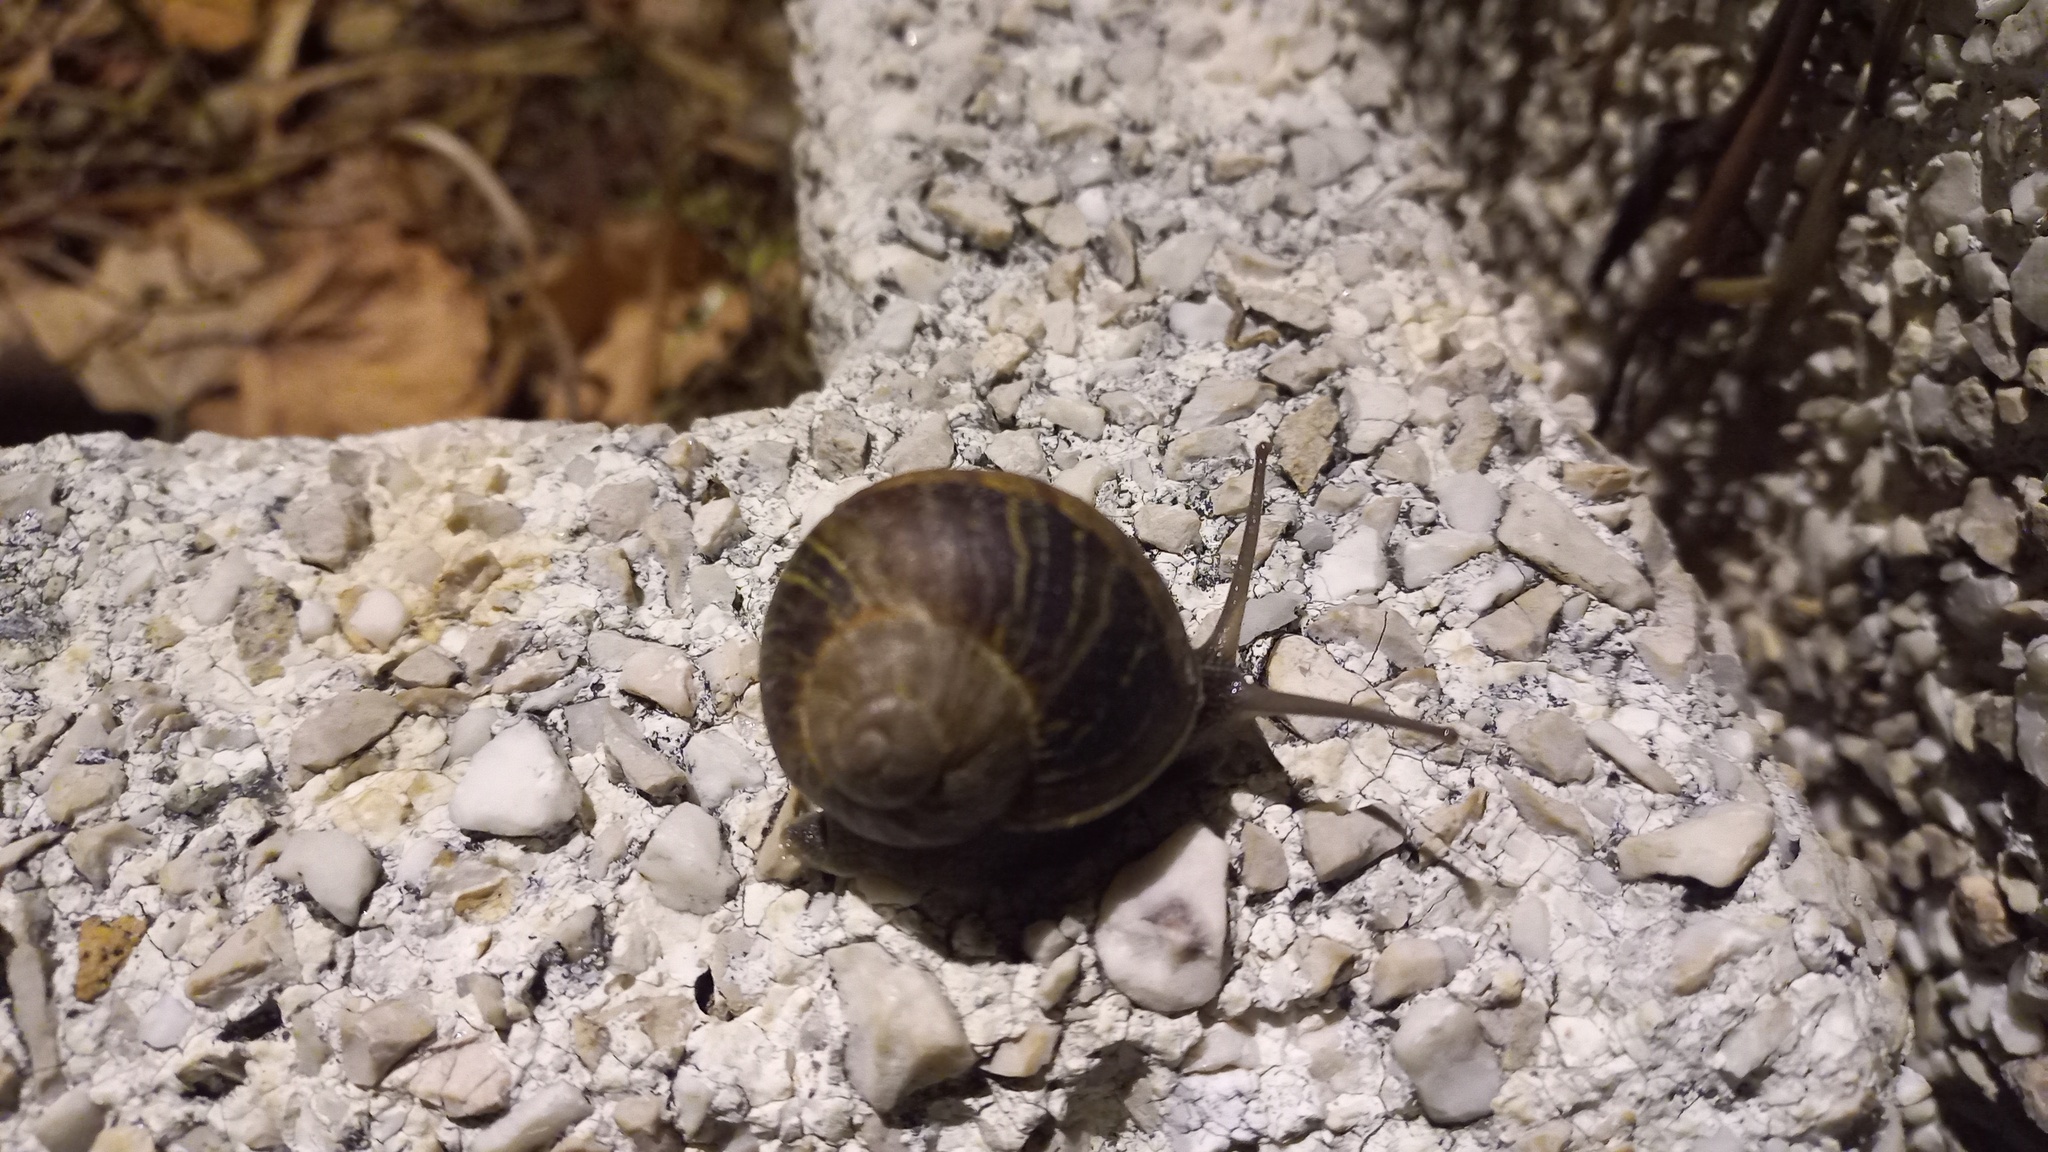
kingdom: Animalia
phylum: Mollusca
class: Gastropoda
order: Stylommatophora
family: Helicidae
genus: Cornu
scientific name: Cornu aspersum
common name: Brown garden snail
